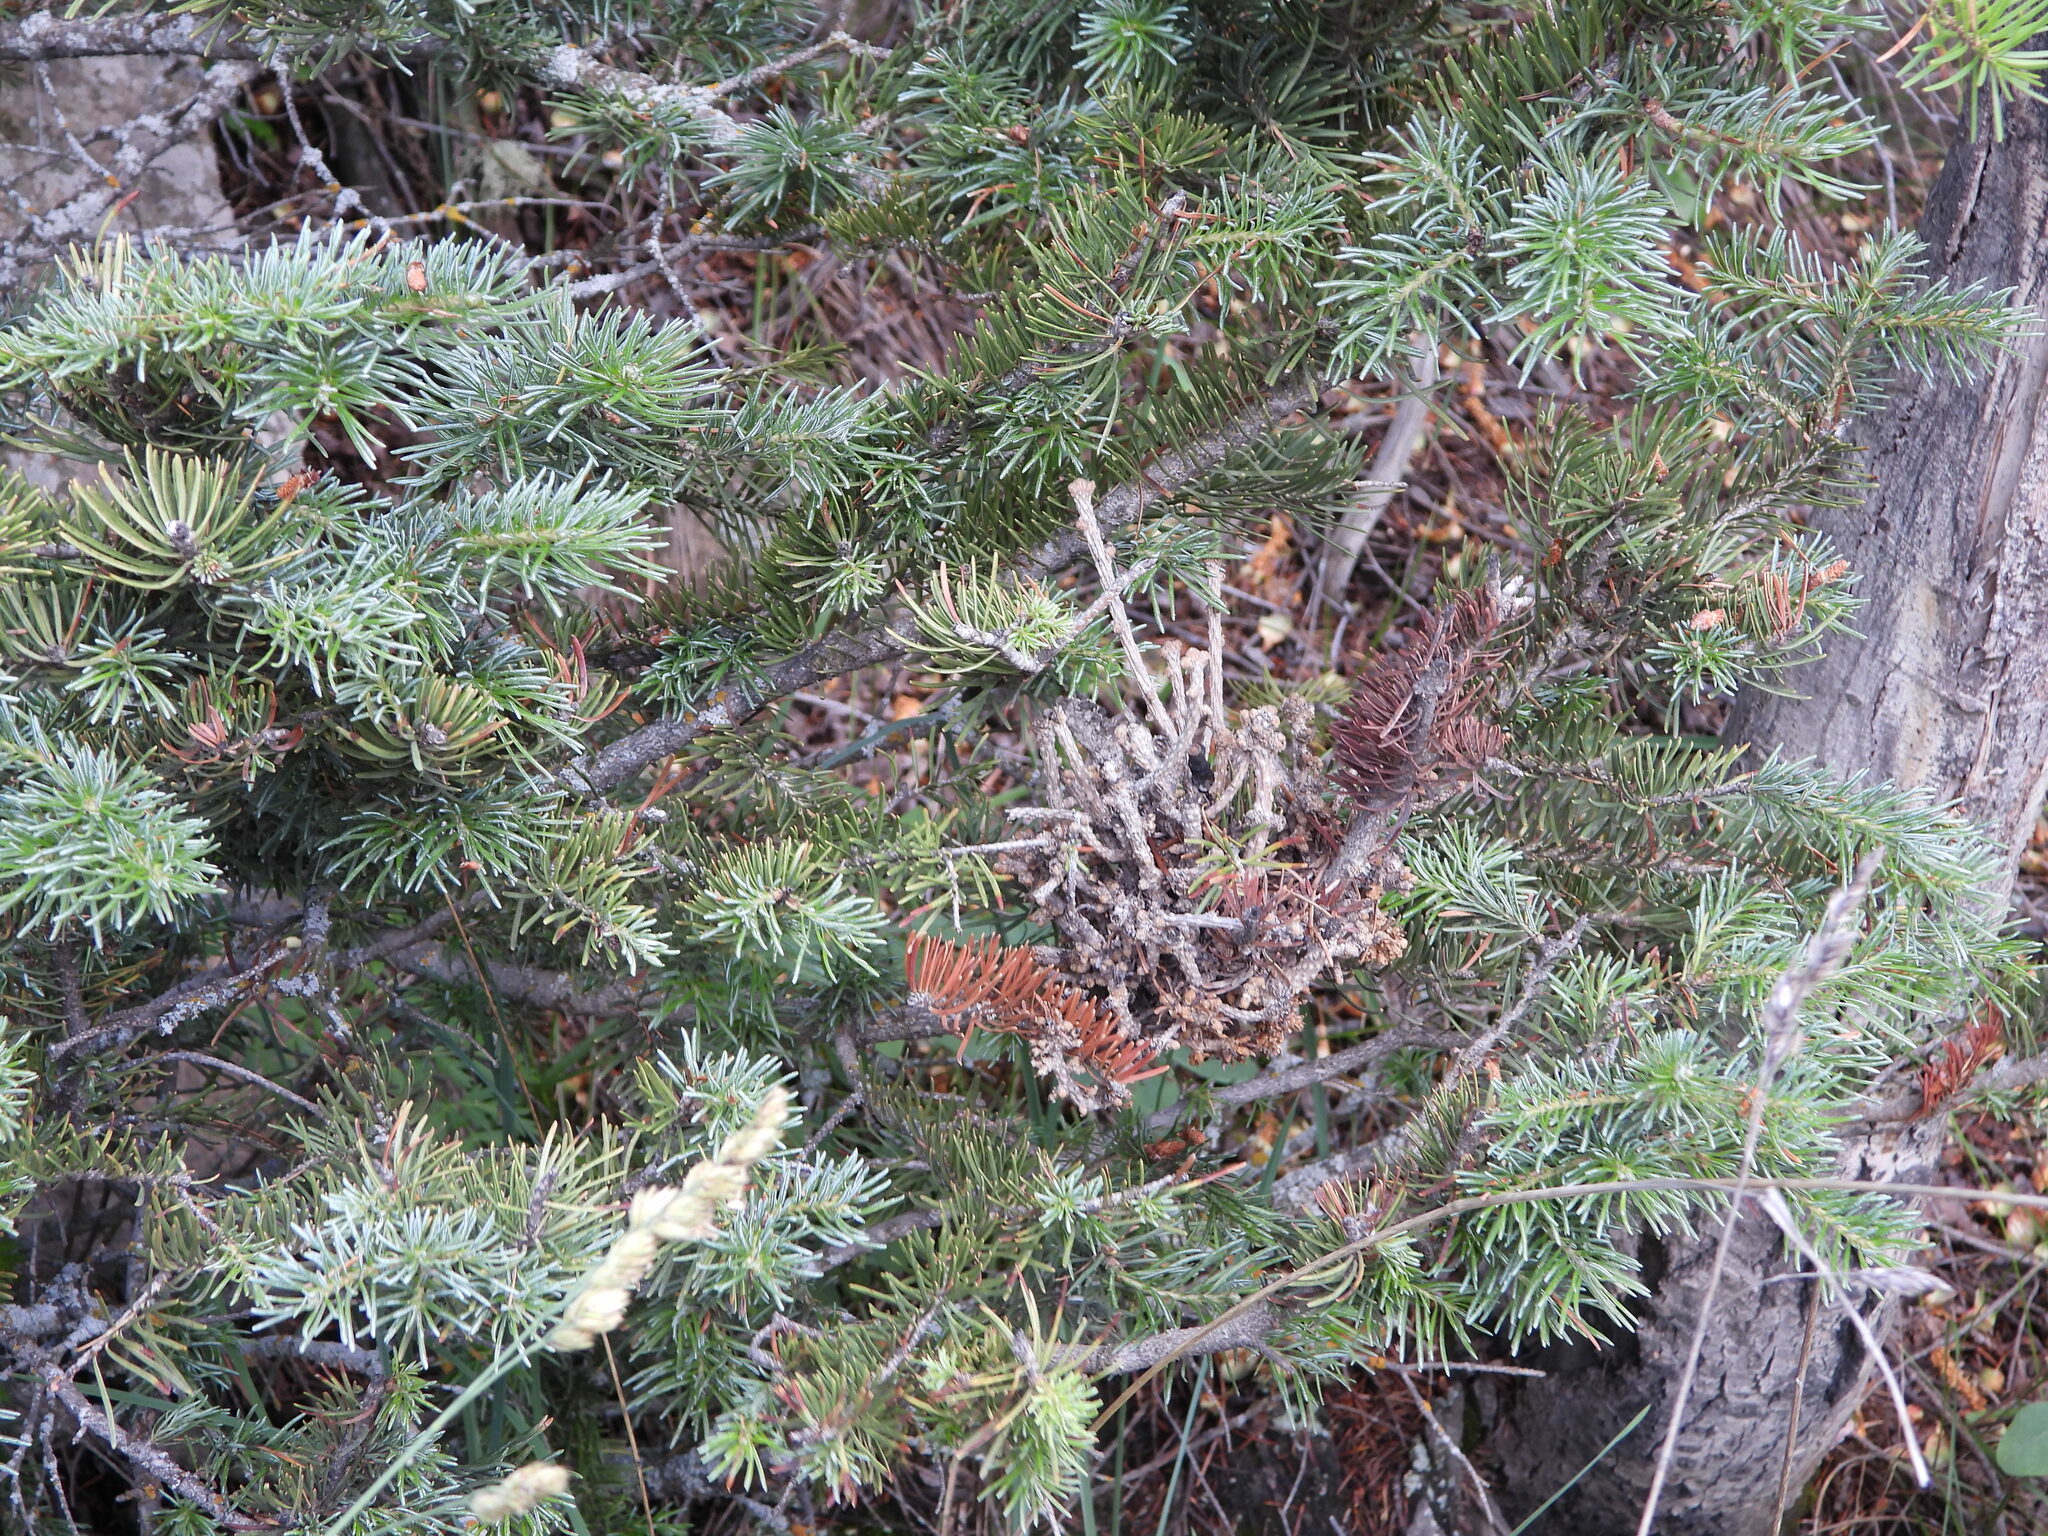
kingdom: Plantae
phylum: Tracheophyta
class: Pinopsida
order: Pinales
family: Pinaceae
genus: Abies
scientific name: Abies lasiocarpa
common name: Subalpine fir
